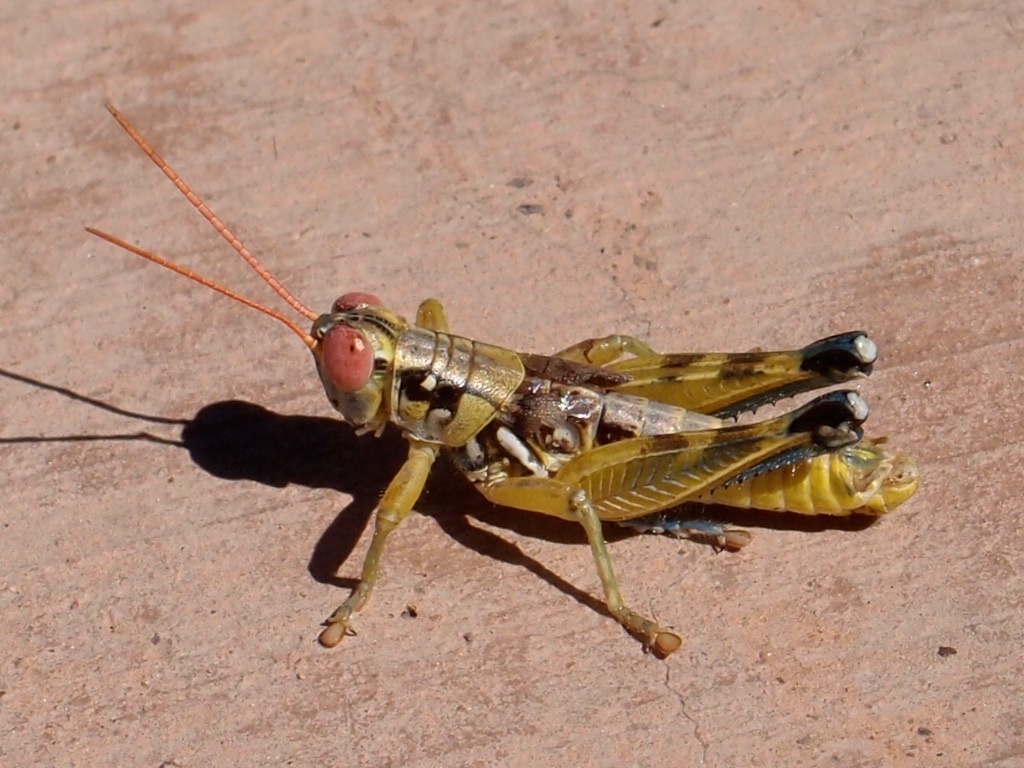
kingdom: Animalia
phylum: Arthropoda
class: Insecta
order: Orthoptera
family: Acrididae
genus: Melanoplus
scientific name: Melanoplus aridus
